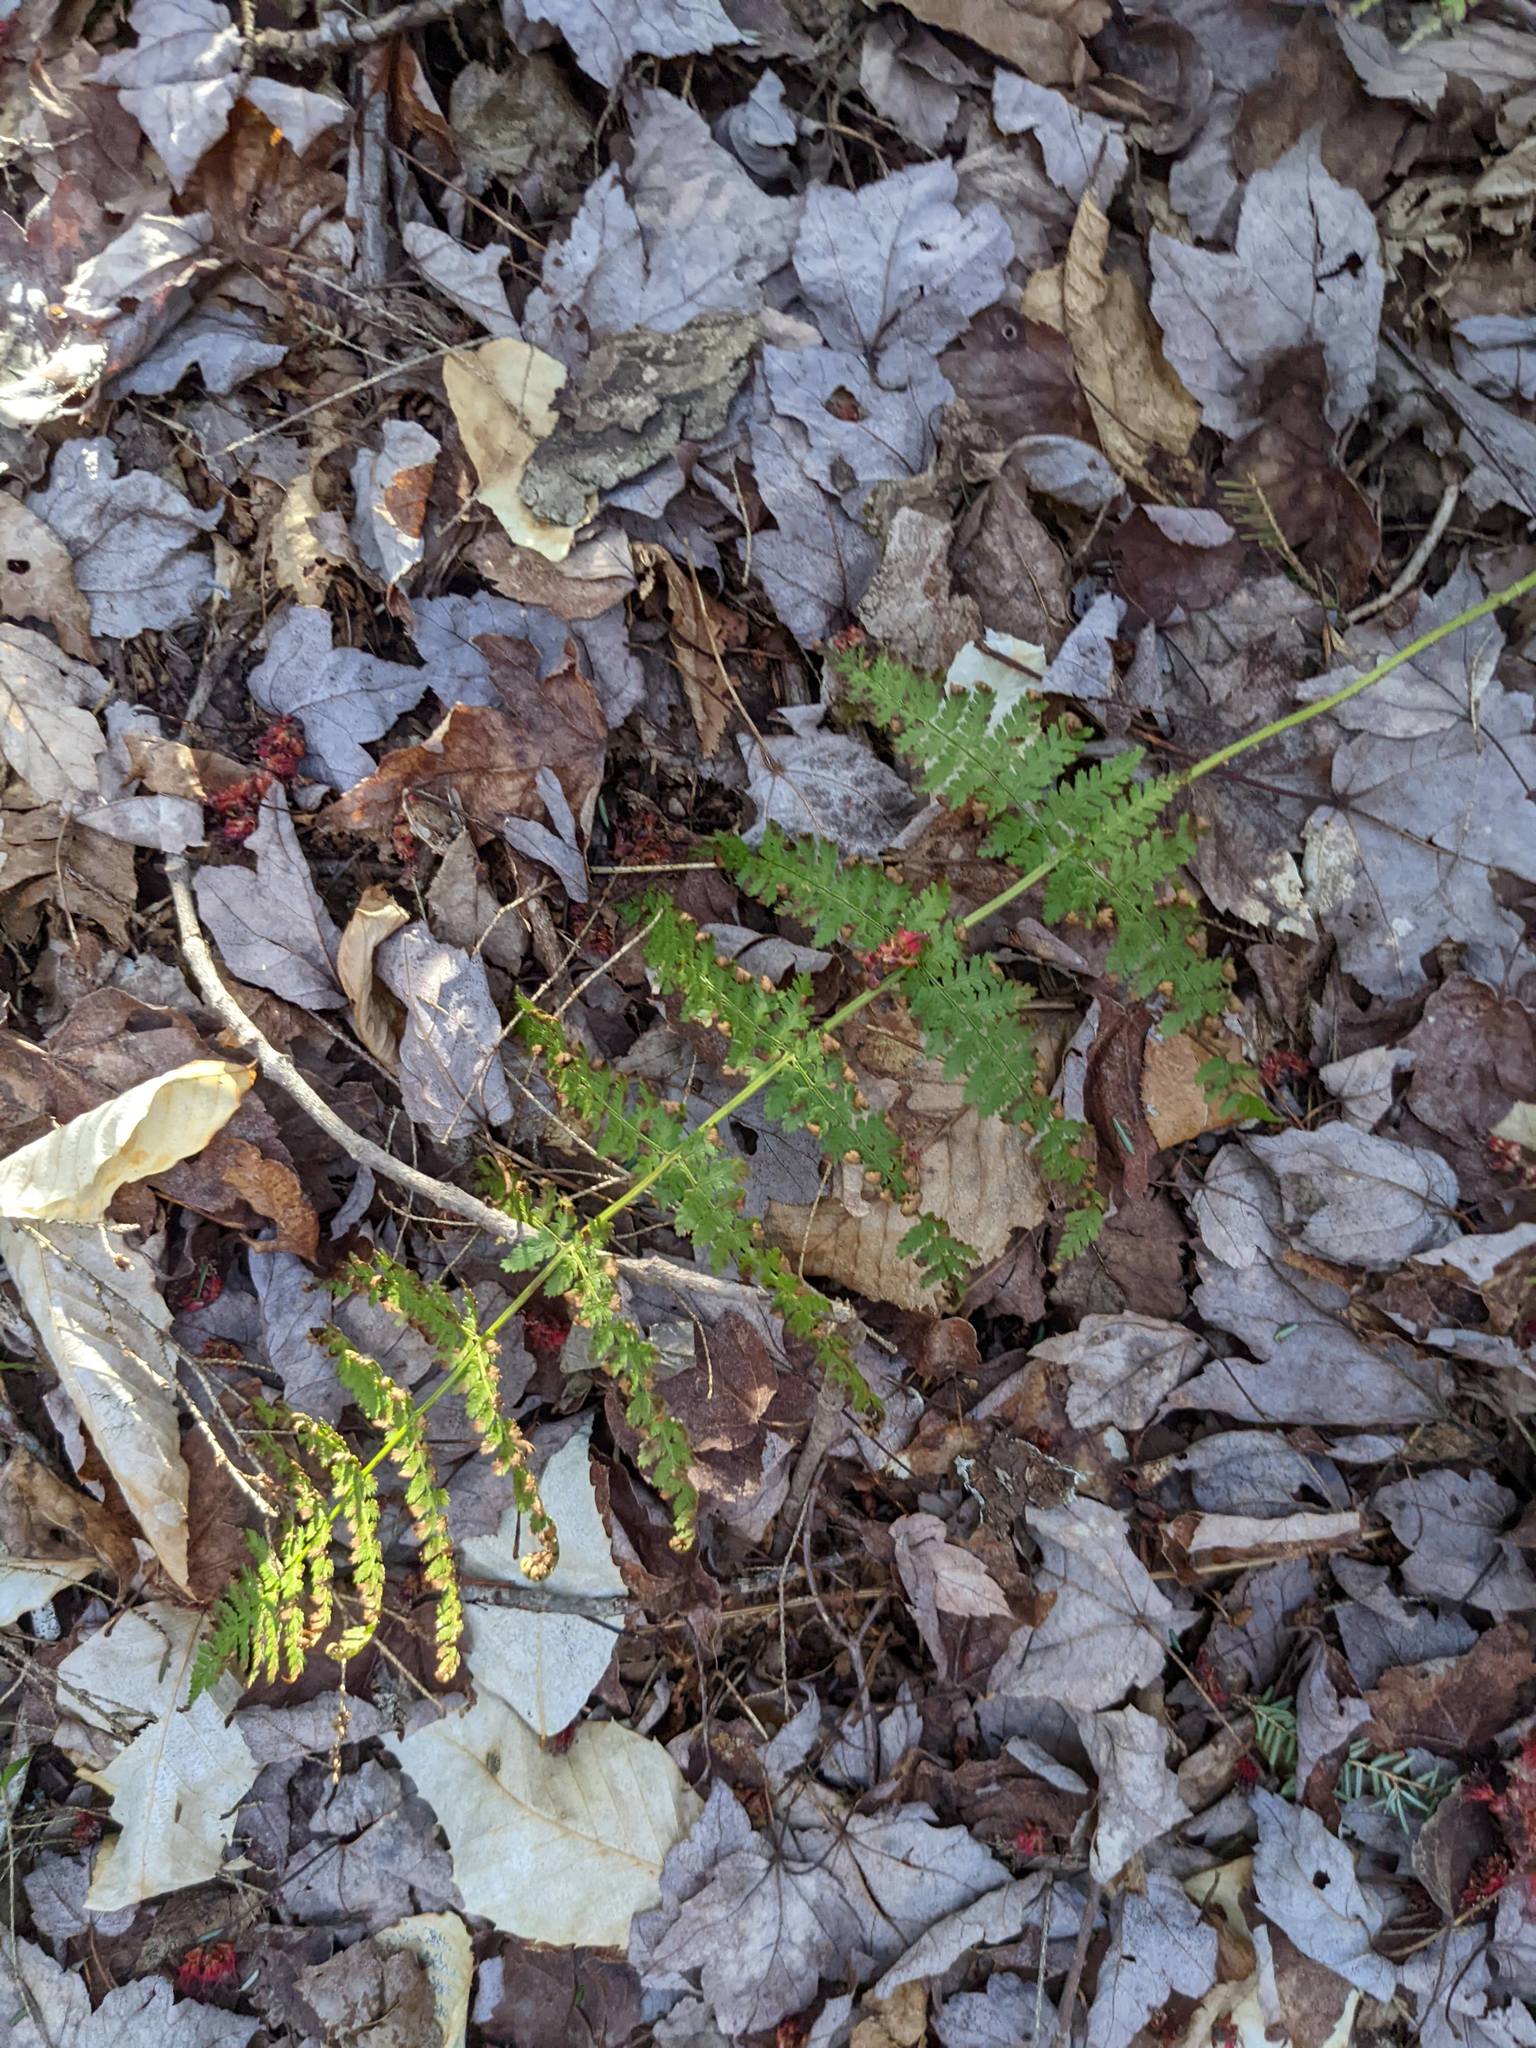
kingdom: Plantae
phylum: Tracheophyta
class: Polypodiopsida
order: Polypodiales
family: Dryopteridaceae
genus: Dryopteris
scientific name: Dryopteris intermedia
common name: Evergreen wood fern
